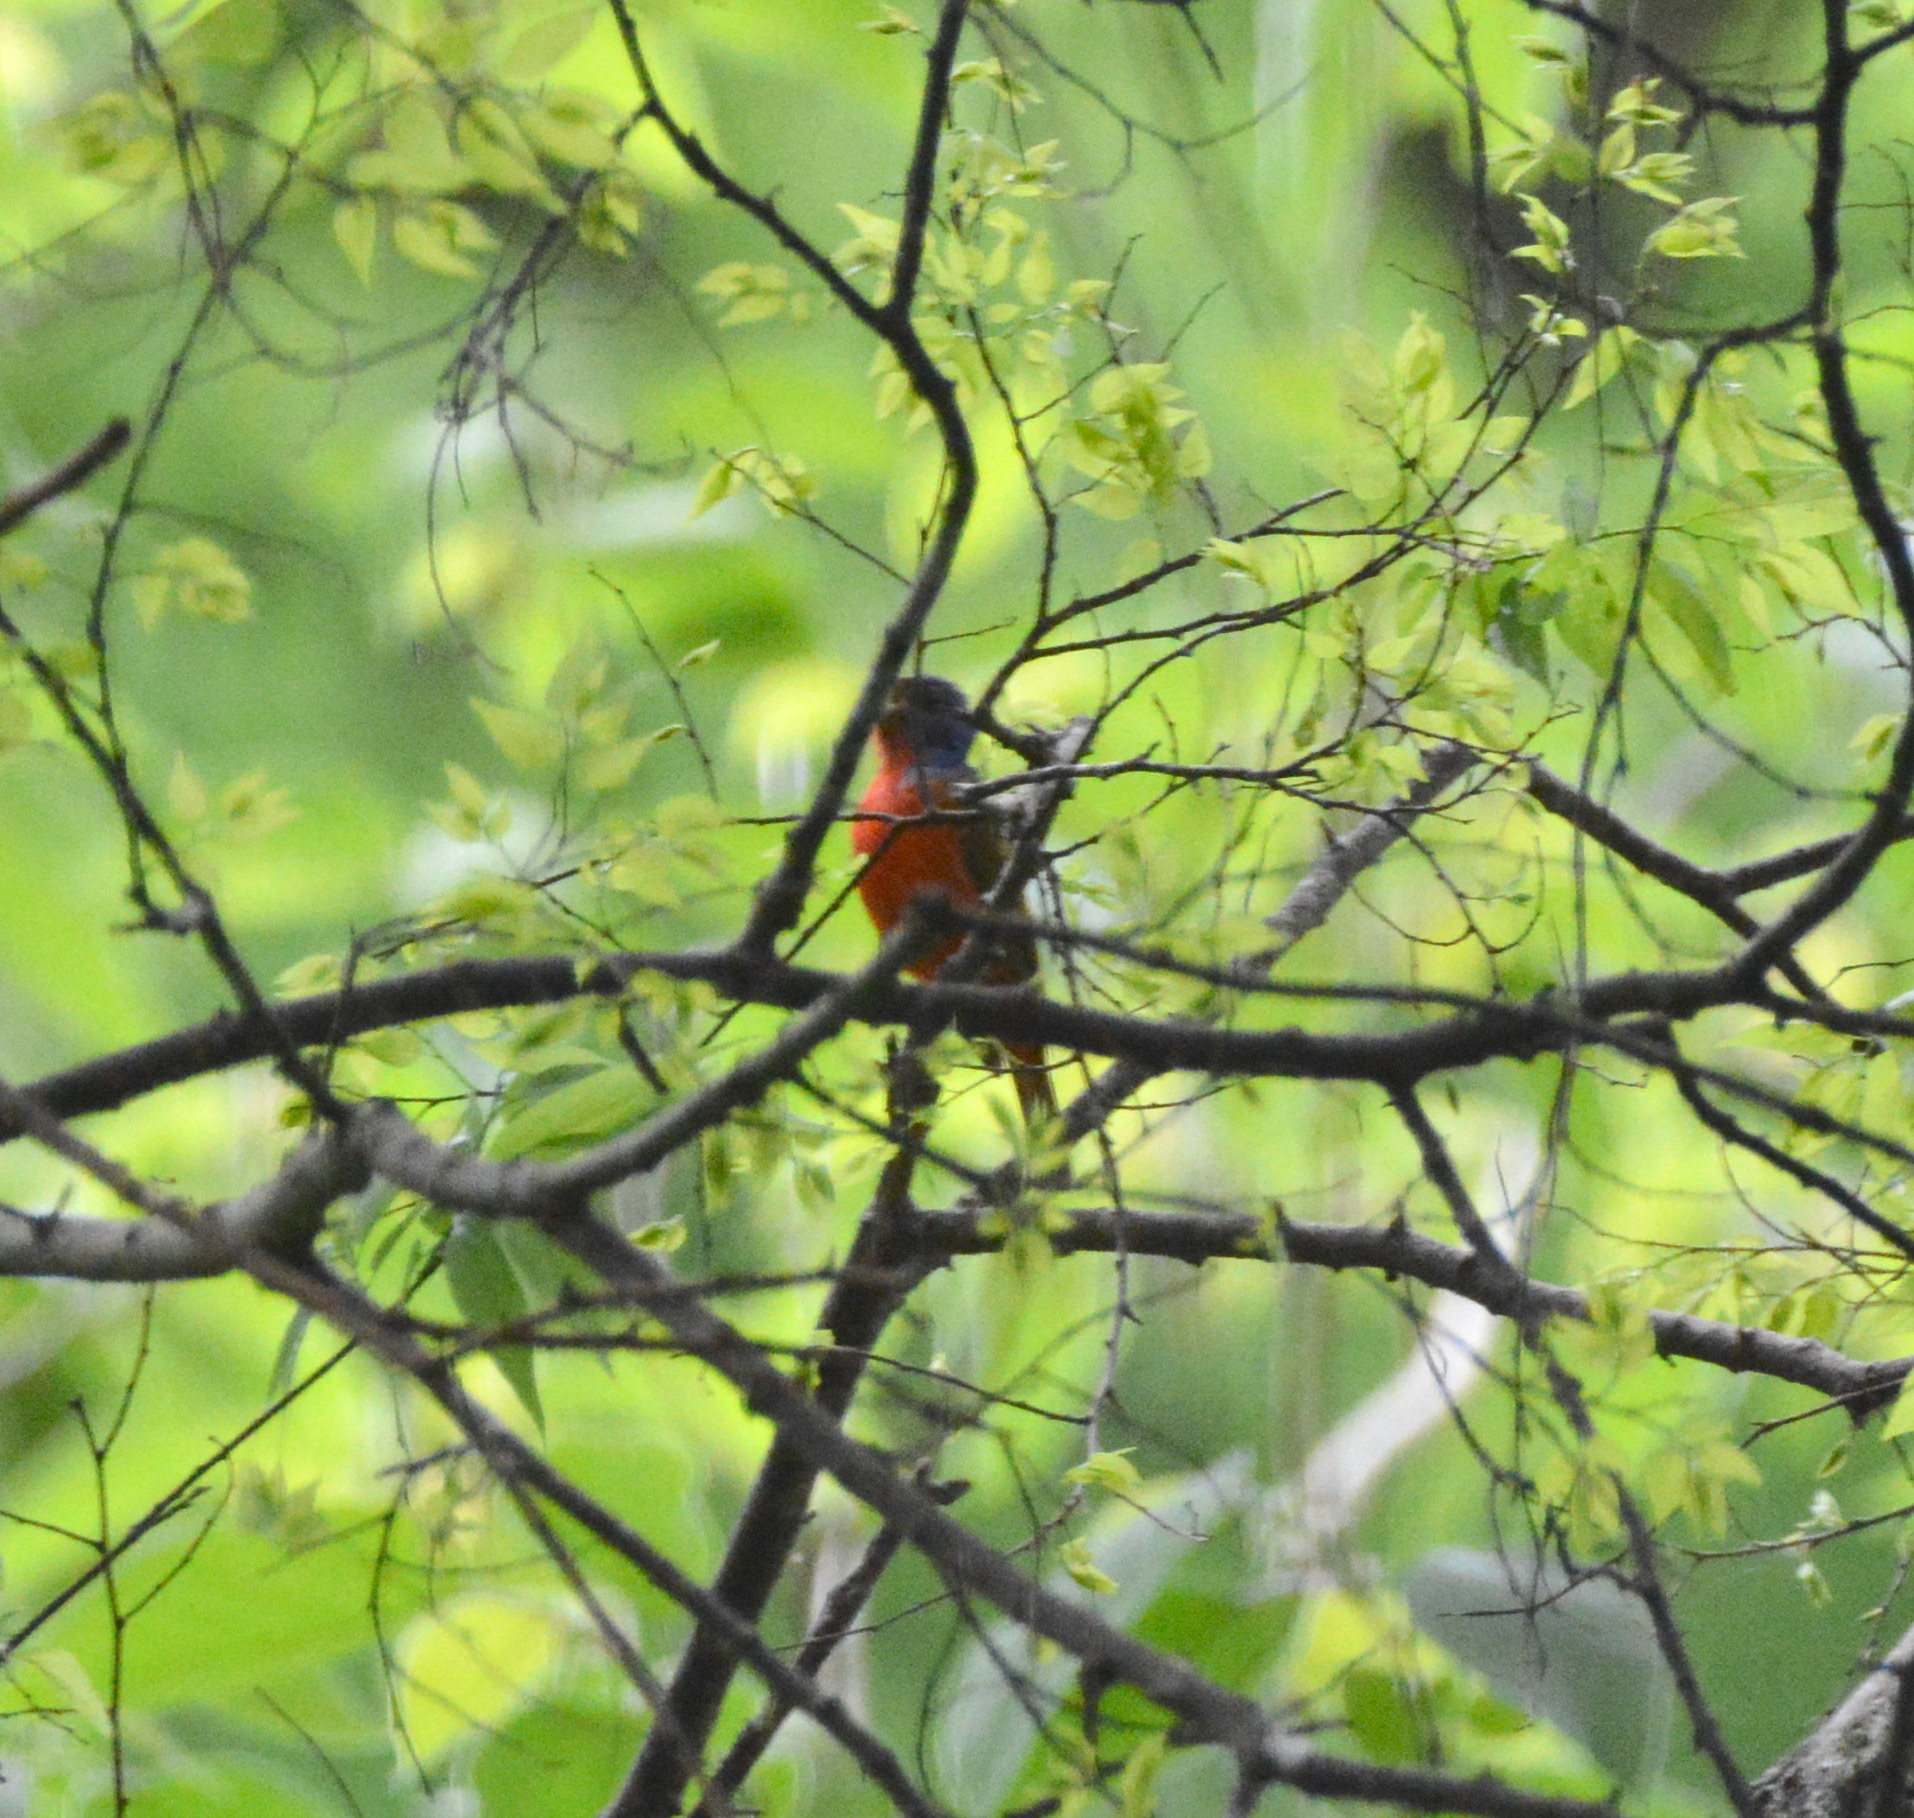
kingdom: Animalia
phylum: Chordata
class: Aves
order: Passeriformes
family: Cardinalidae
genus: Passerina
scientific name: Passerina ciris
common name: Painted bunting
